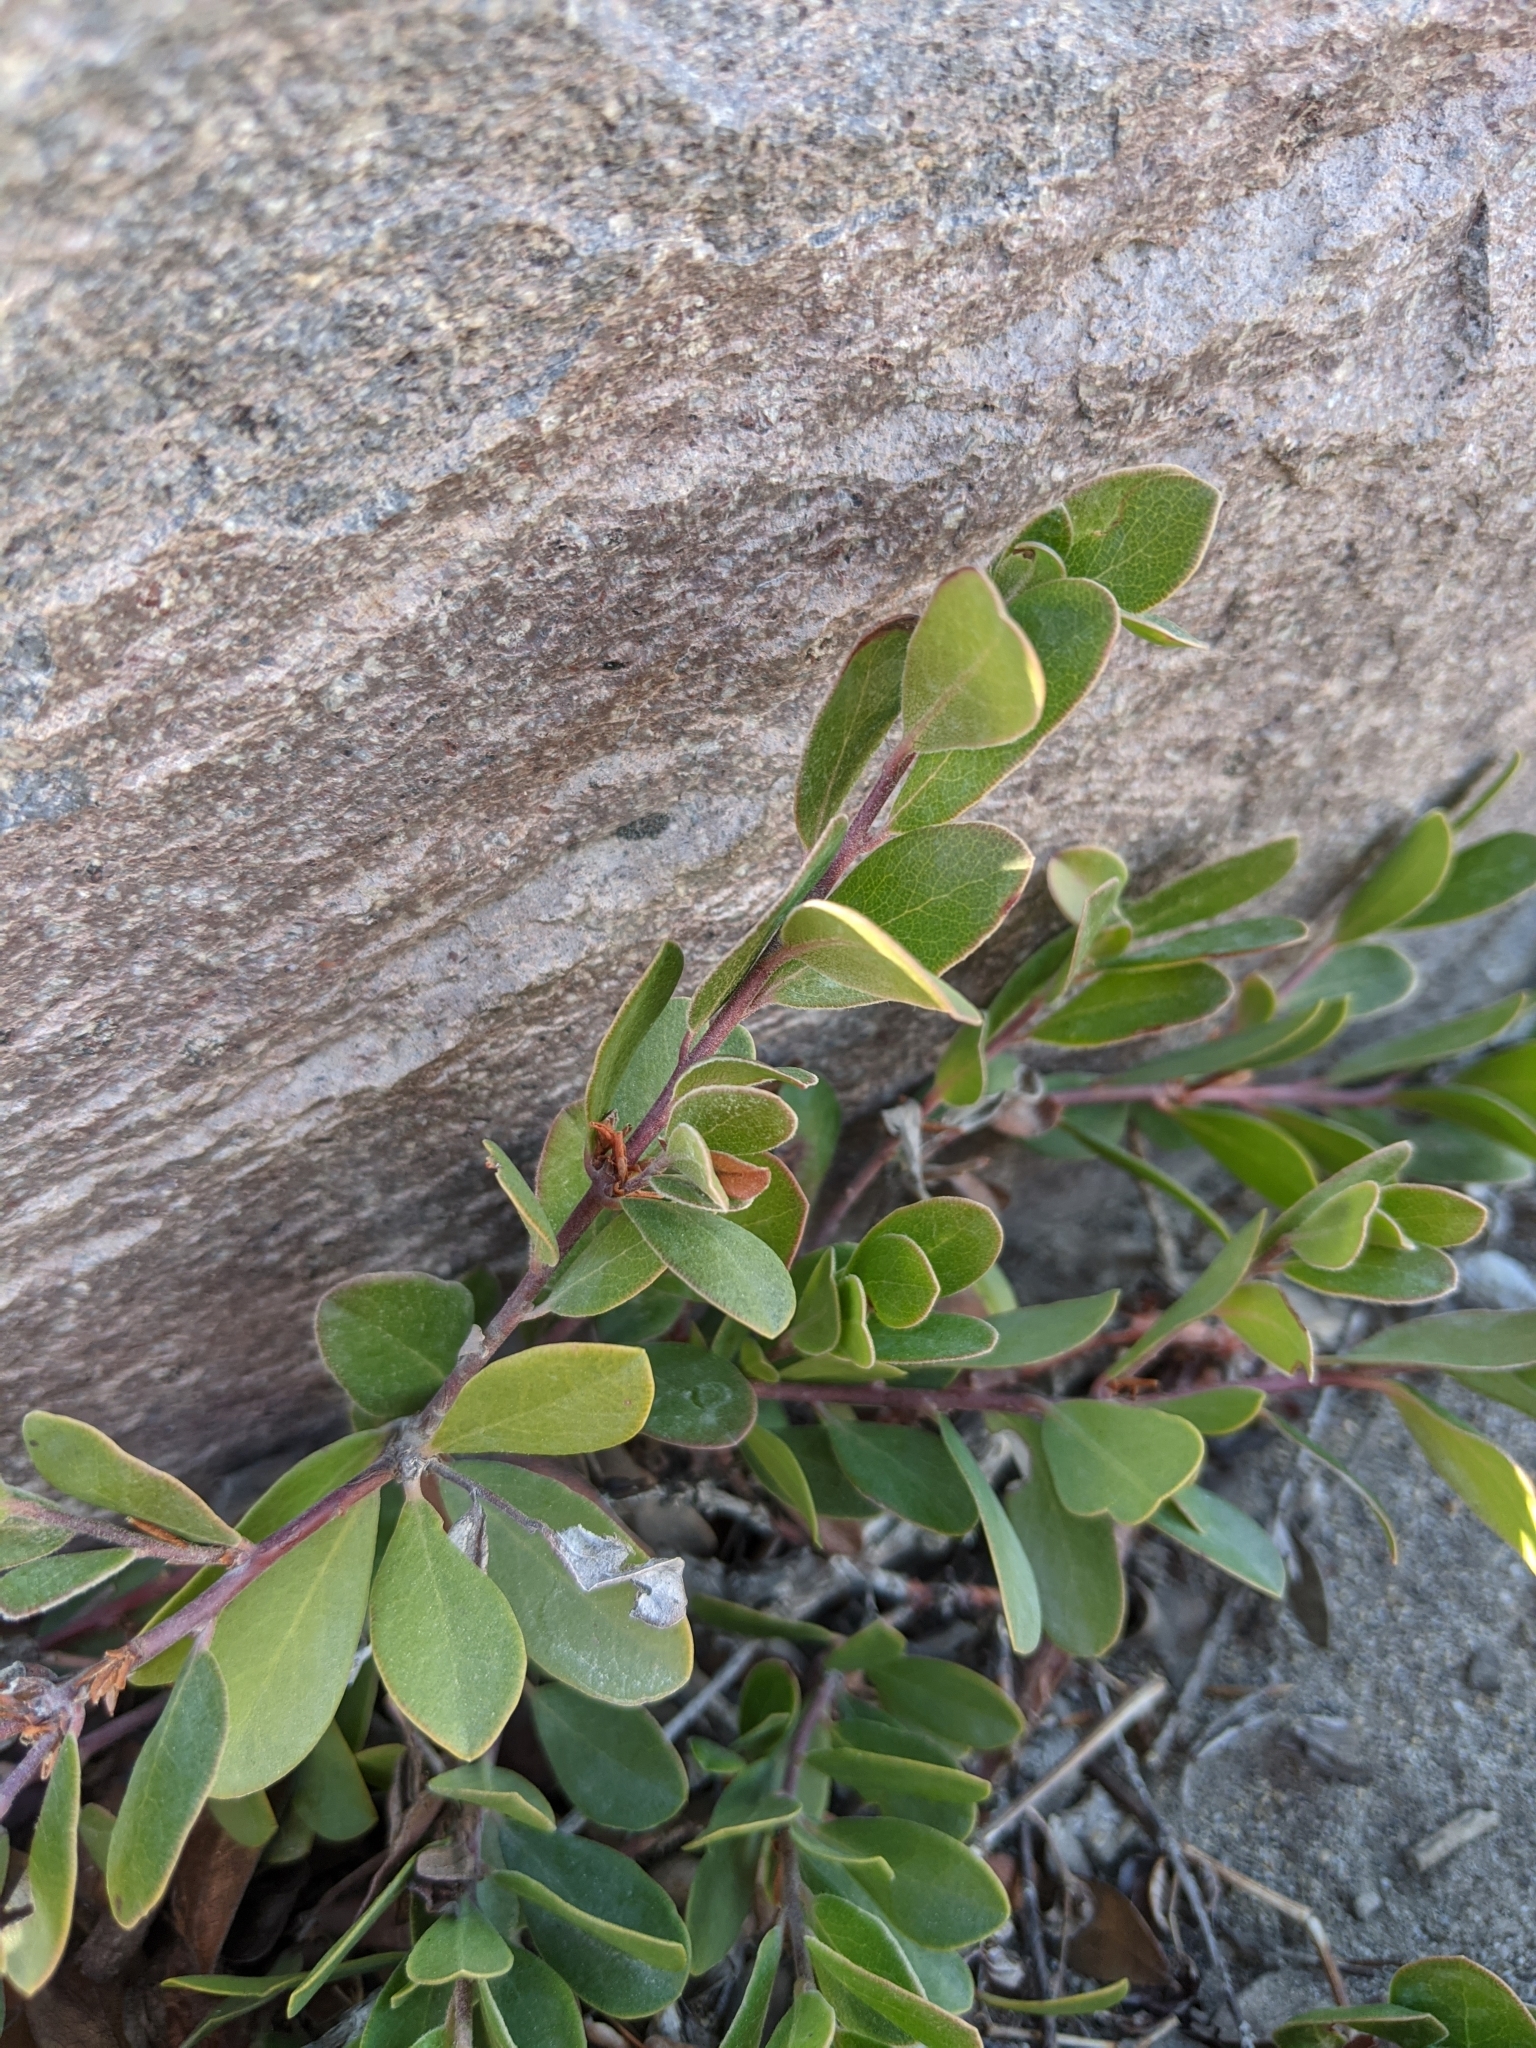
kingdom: Plantae
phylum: Tracheophyta
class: Magnoliopsida
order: Ericales
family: Ericaceae
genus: Arctostaphylos
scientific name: Arctostaphylos uva-ursi
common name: Bearberry
